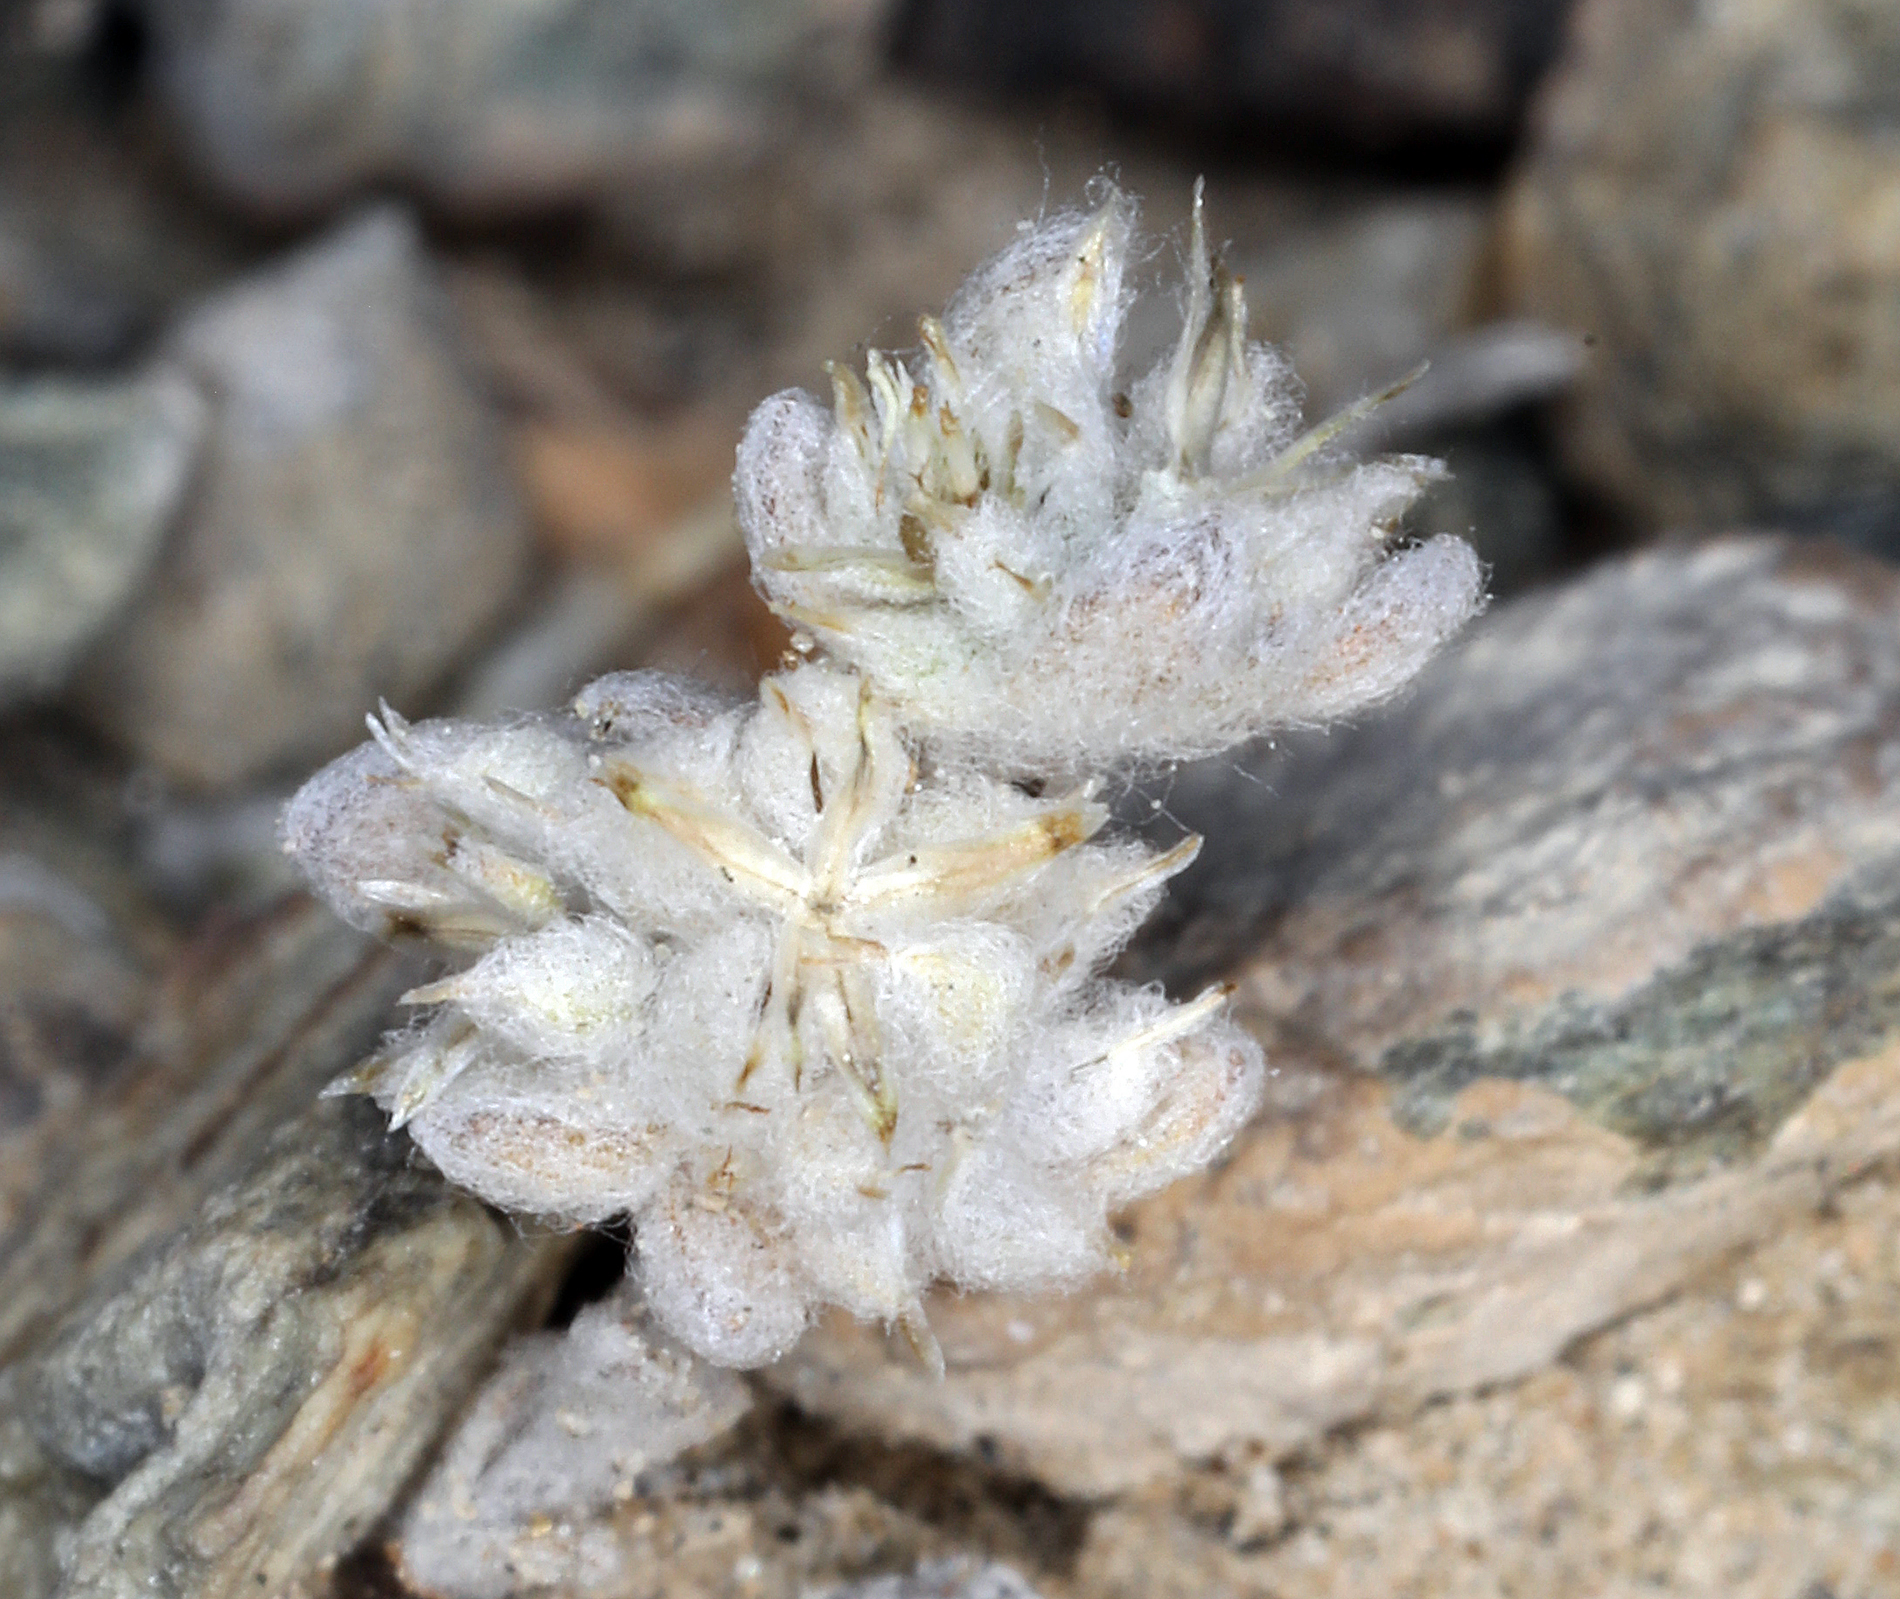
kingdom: Plantae
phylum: Tracheophyta
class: Magnoliopsida
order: Asterales
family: Asteraceae
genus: Logfia
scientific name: Logfia depressa
